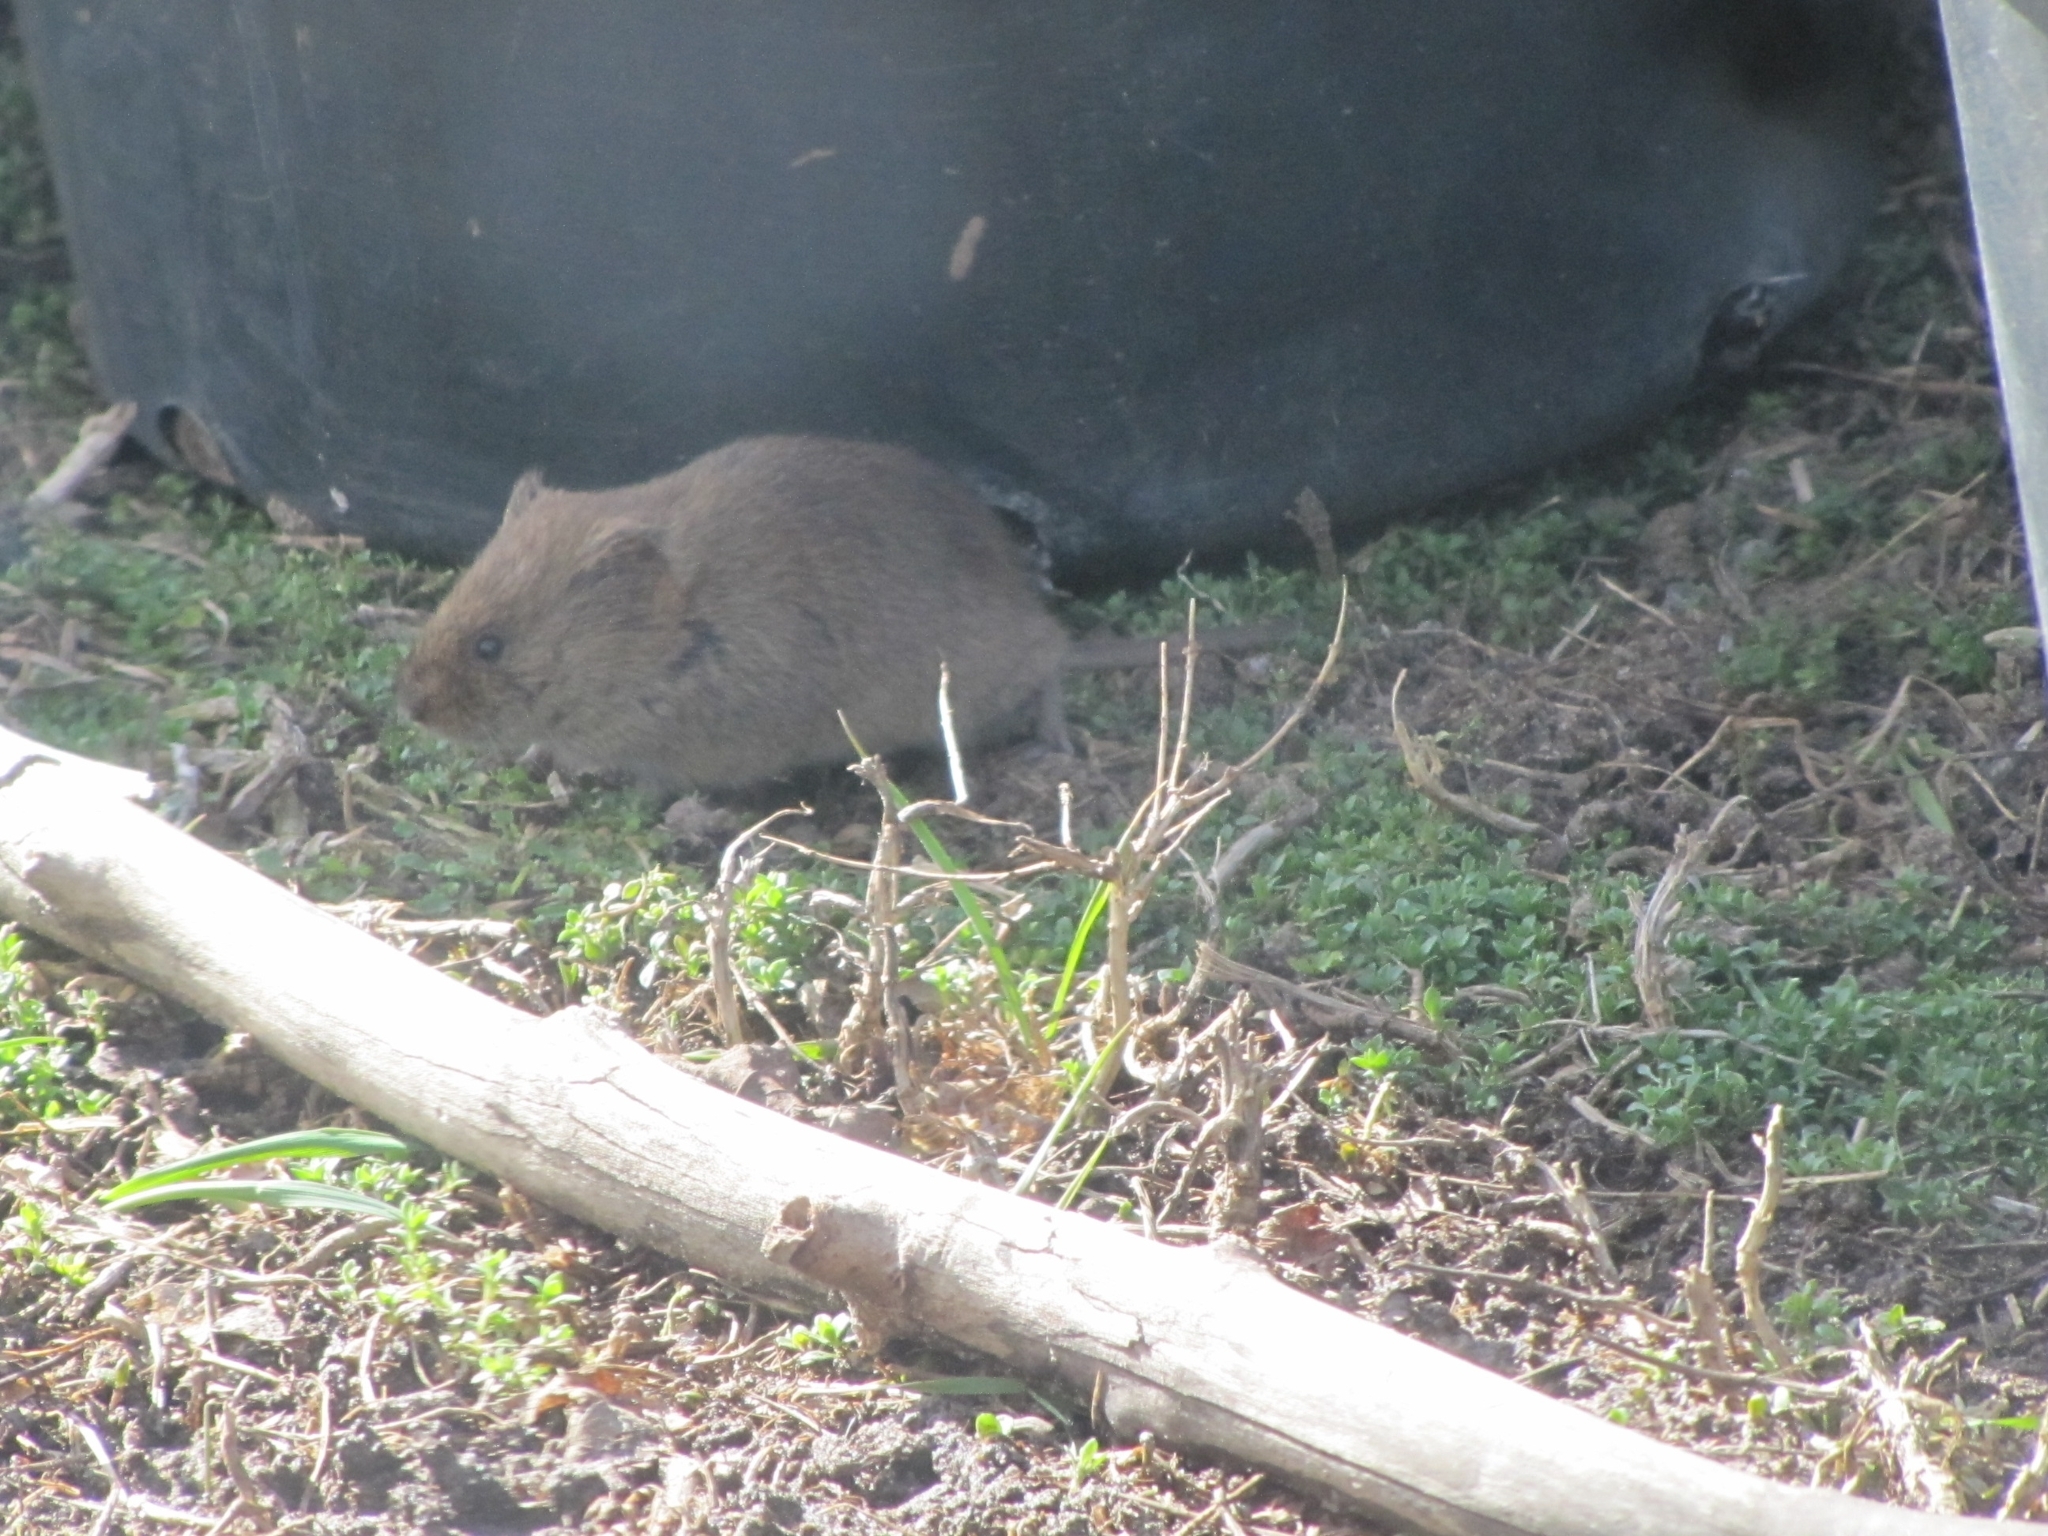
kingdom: Animalia
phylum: Chordata
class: Mammalia
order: Rodentia
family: Cricetidae
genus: Microtus
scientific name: Microtus pennsylvanicus
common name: Meadow vole
